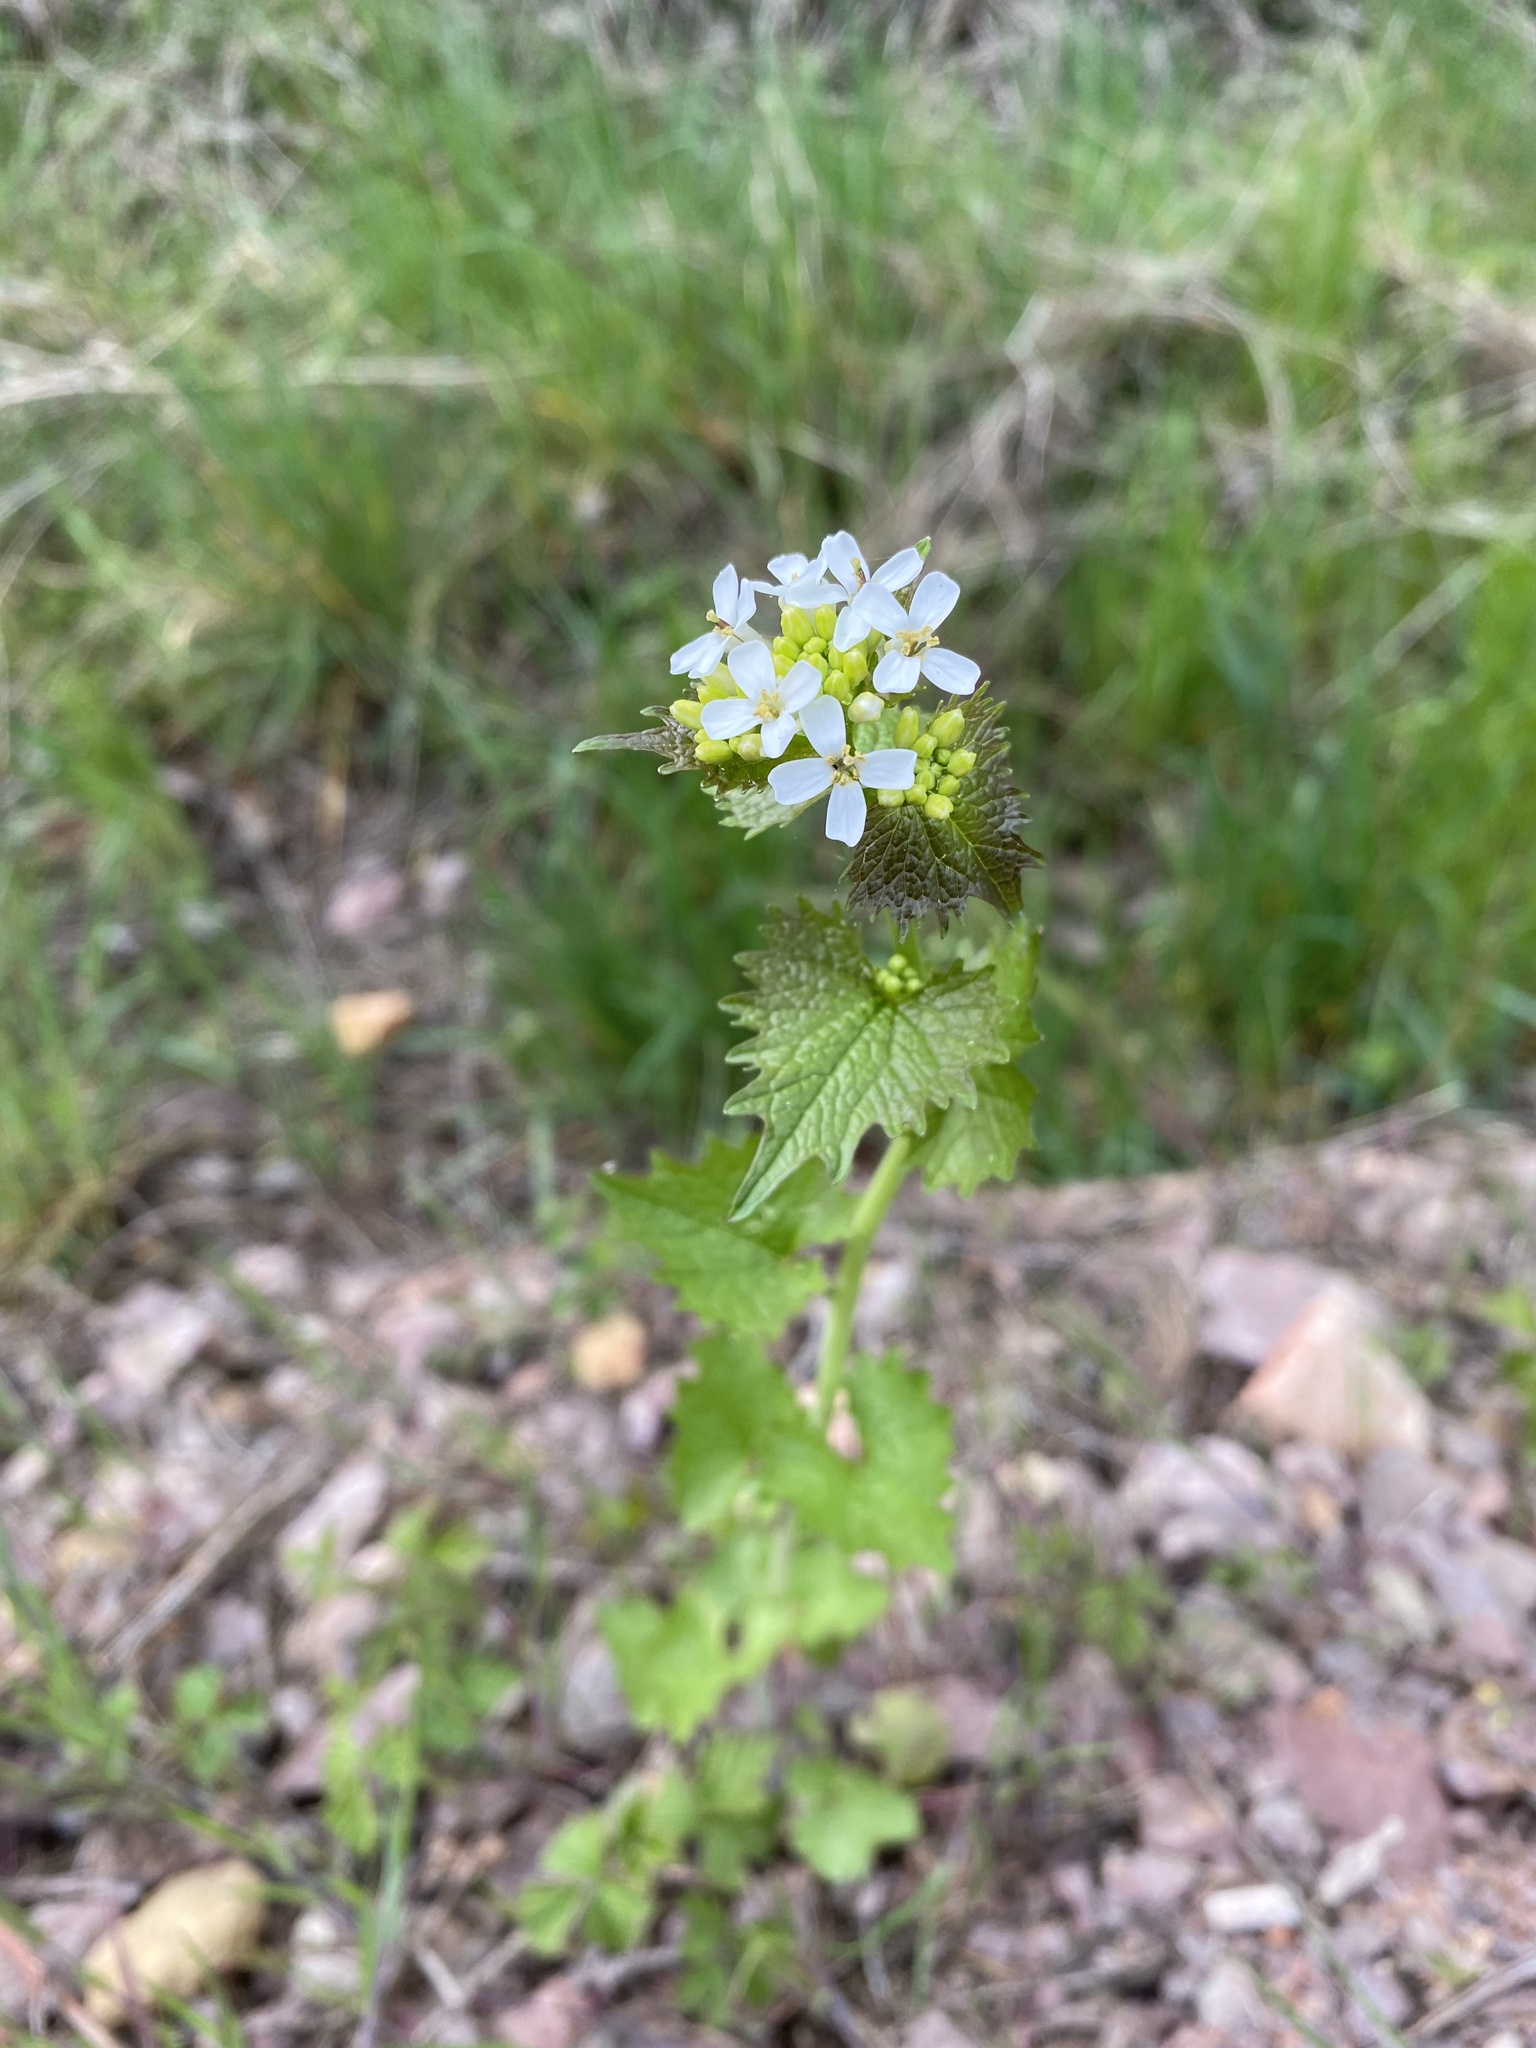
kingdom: Plantae
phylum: Tracheophyta
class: Magnoliopsida
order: Brassicales
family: Brassicaceae
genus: Alliaria
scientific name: Alliaria petiolata
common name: Garlic mustard
